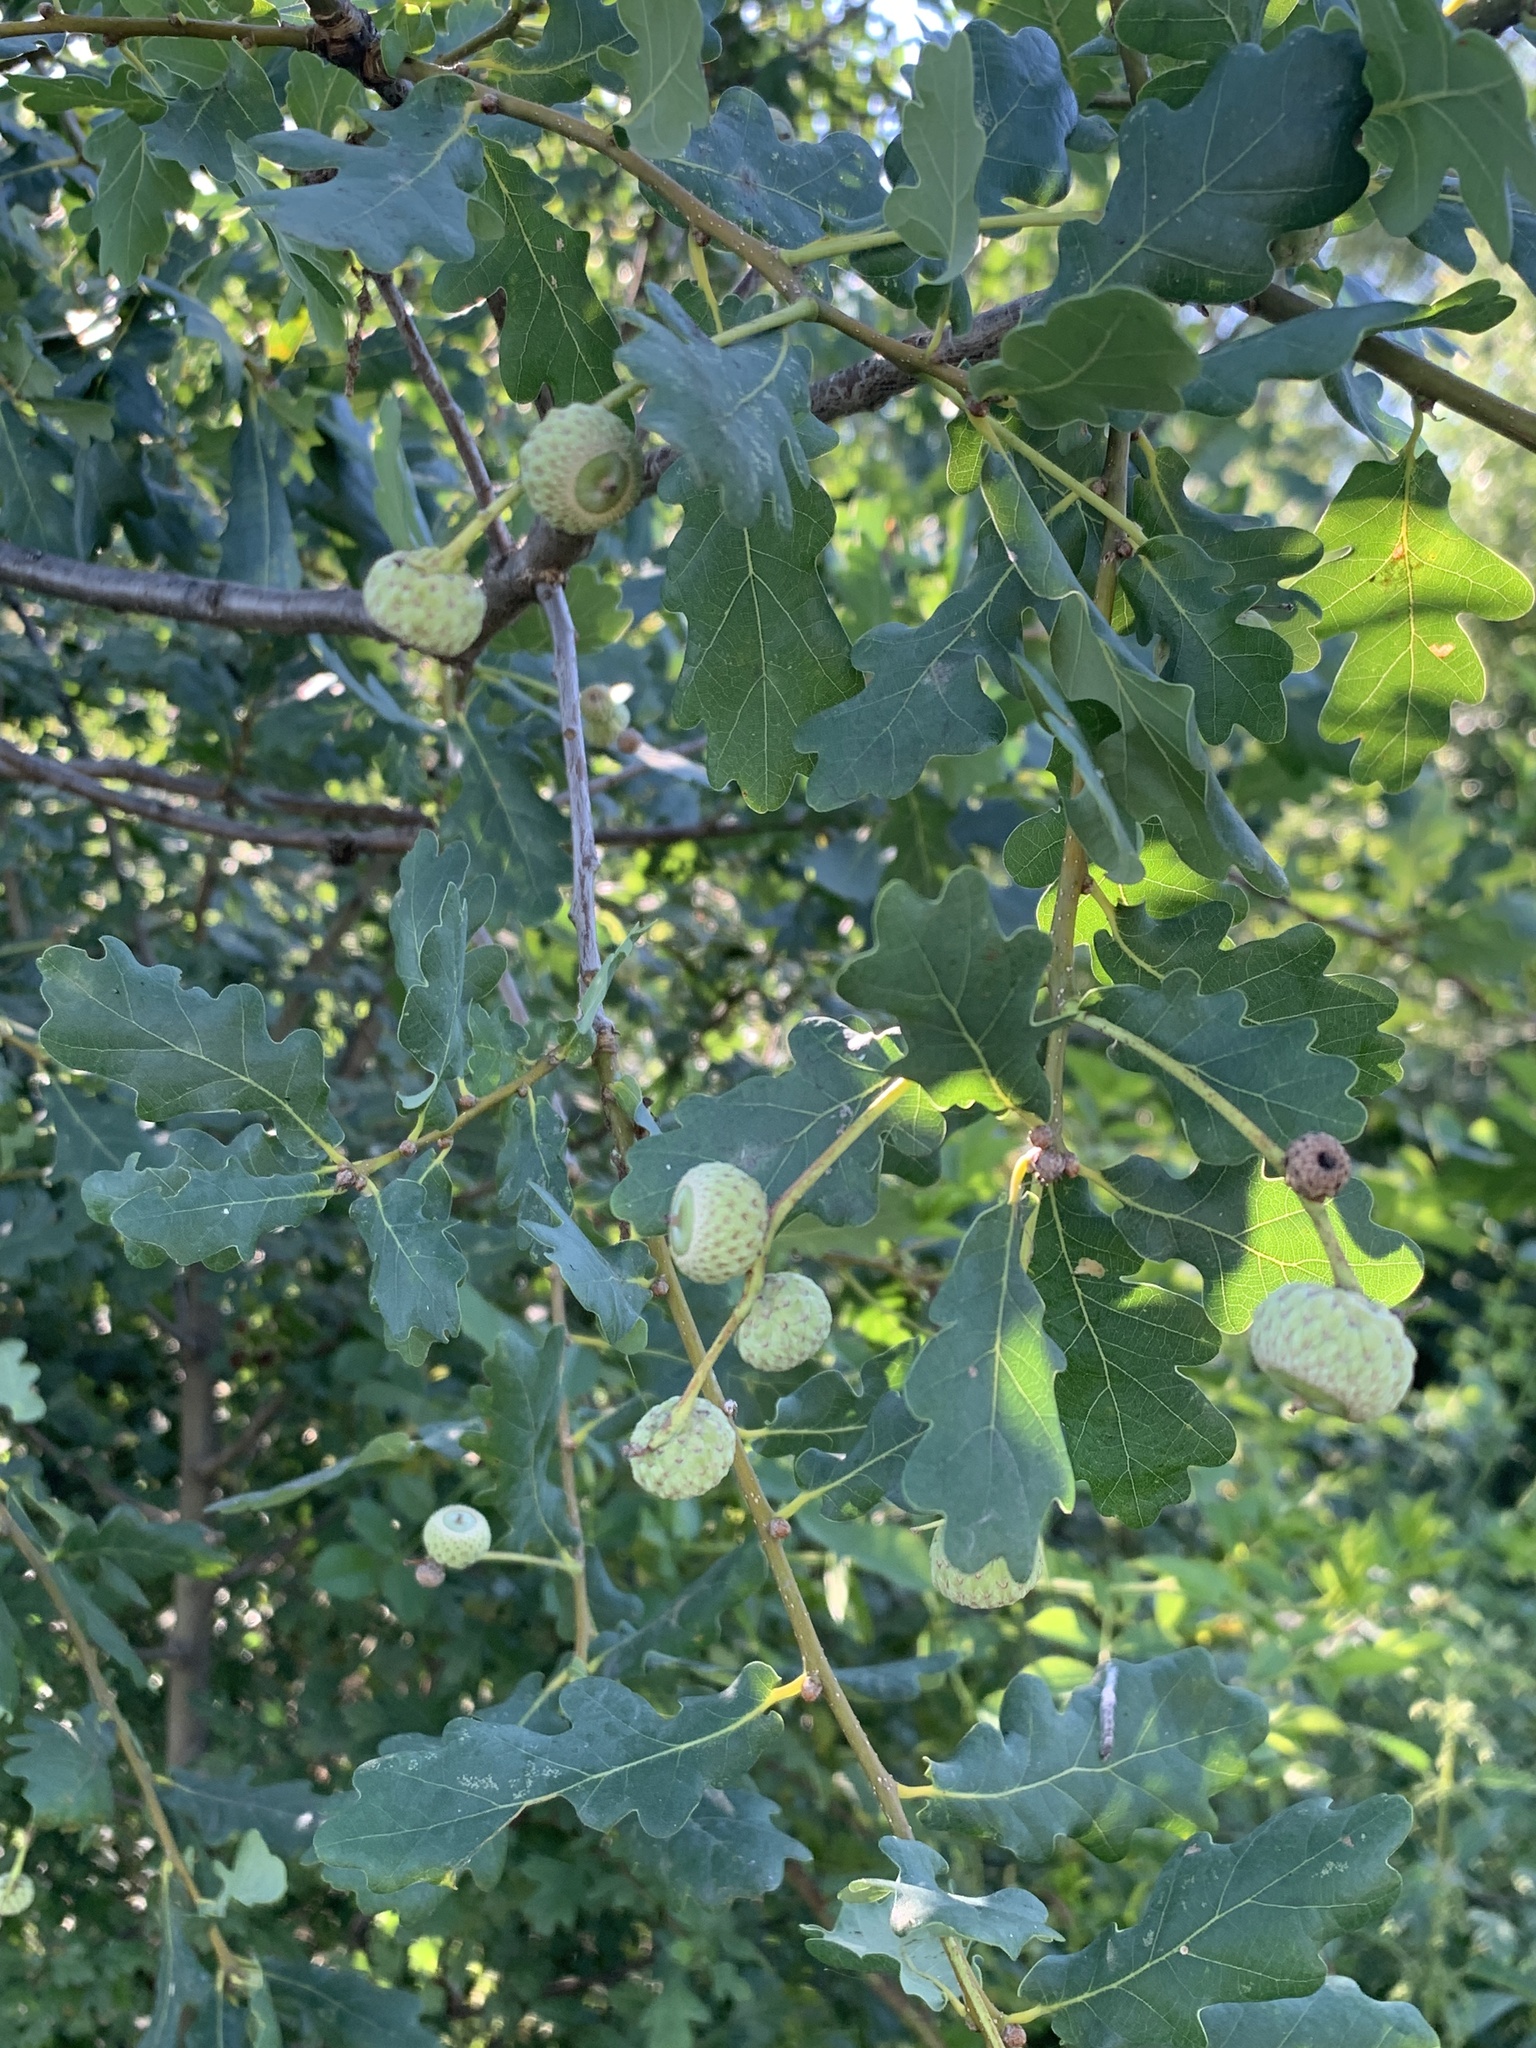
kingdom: Plantae
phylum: Tracheophyta
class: Magnoliopsida
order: Fagales
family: Fagaceae
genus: Quercus
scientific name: Quercus robur
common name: Pedunculate oak
